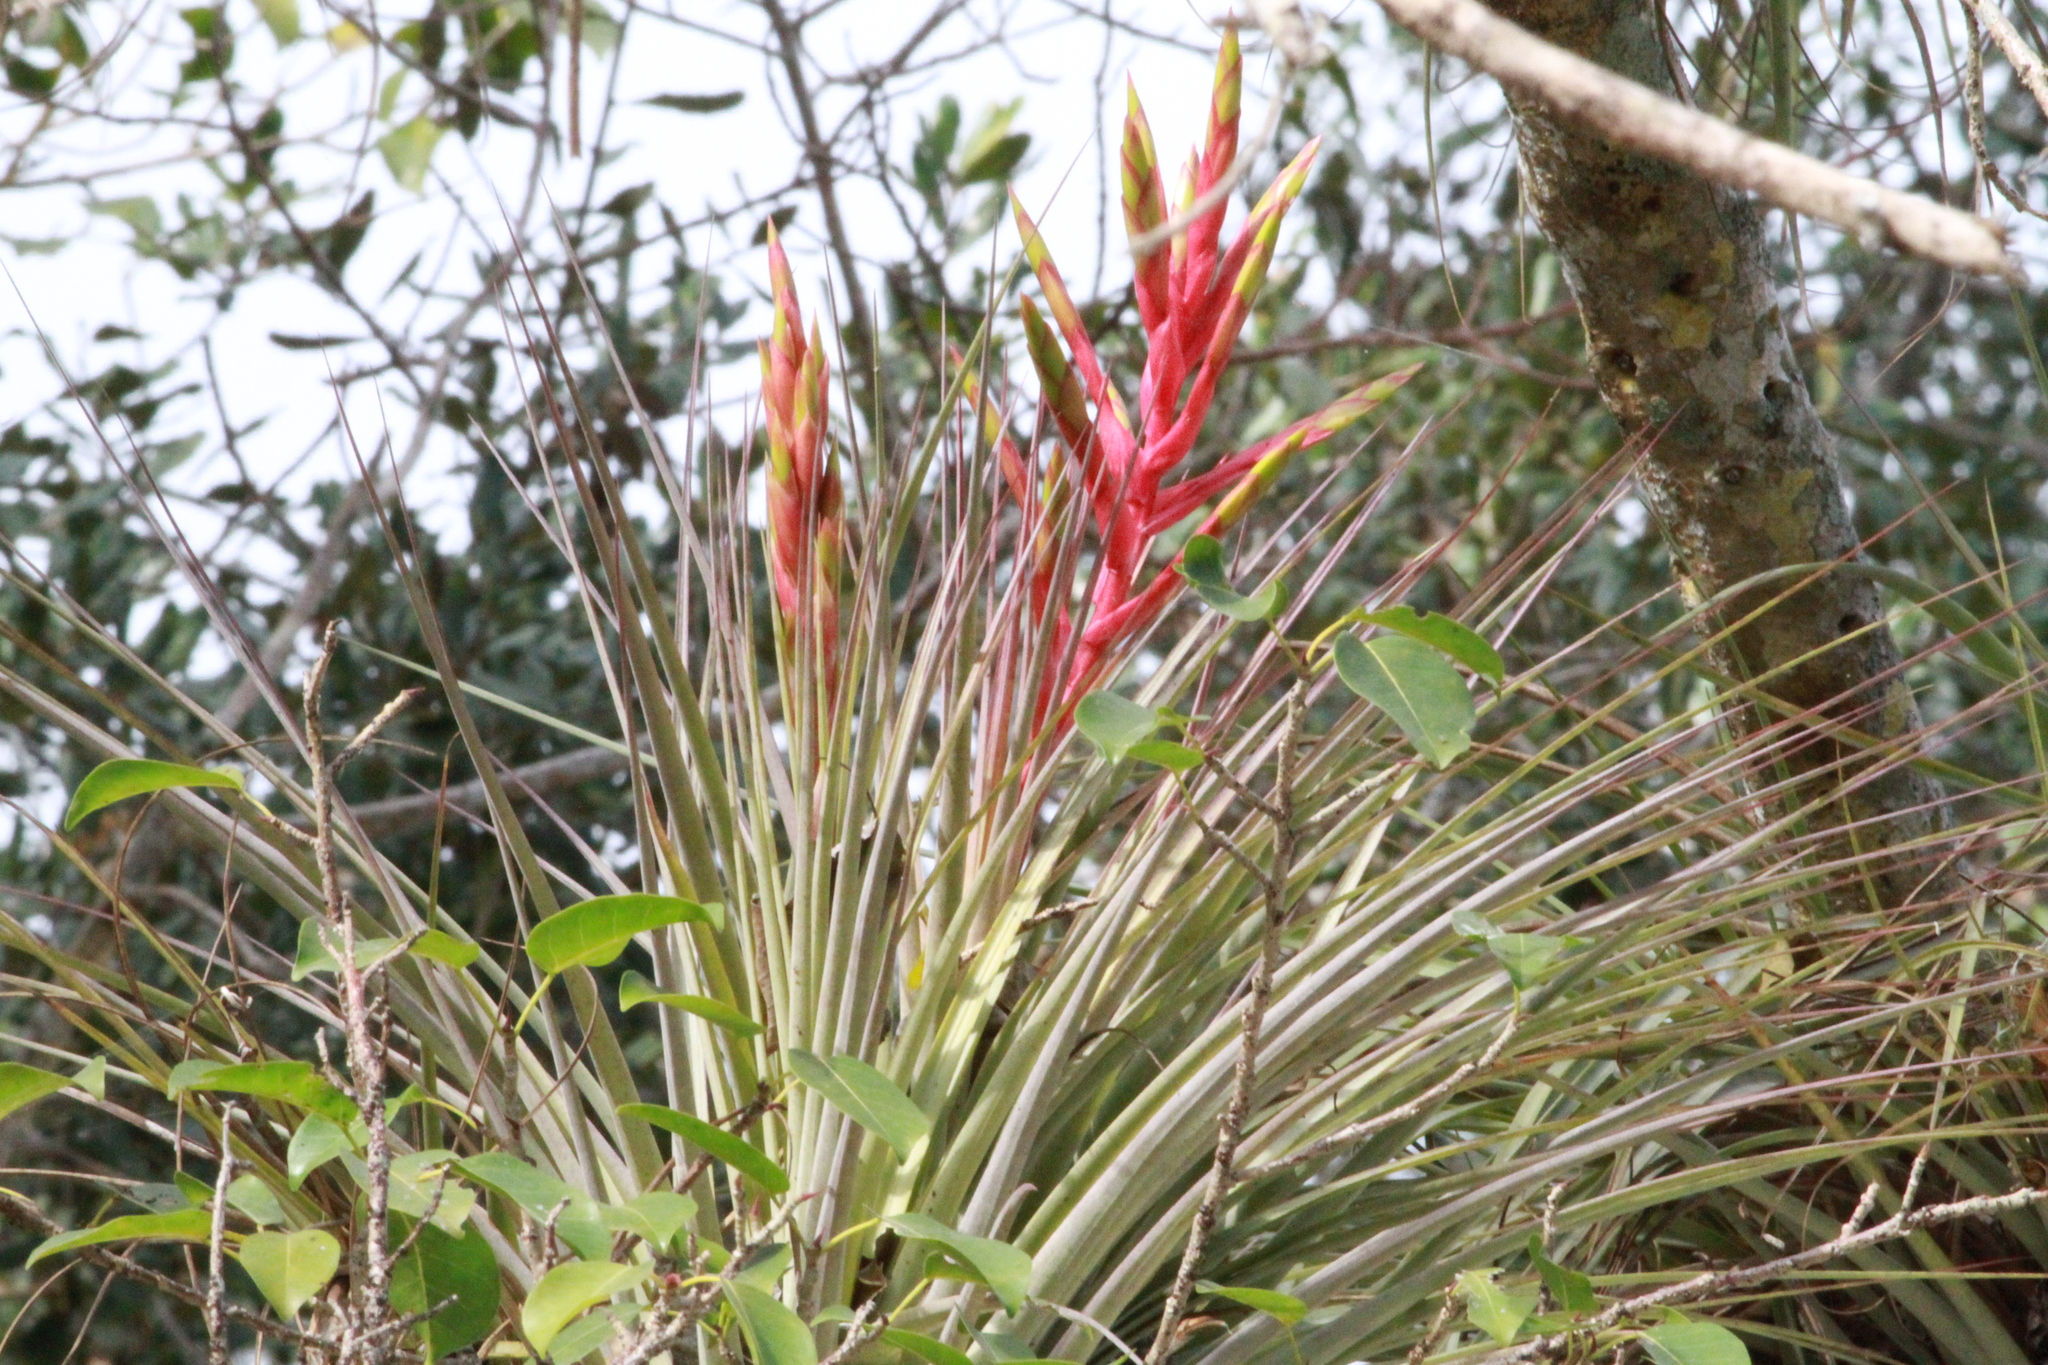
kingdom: Plantae
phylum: Tracheophyta
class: Liliopsida
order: Poales
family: Bromeliaceae
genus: Tillandsia
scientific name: Tillandsia fasciculata
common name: Giant airplant
